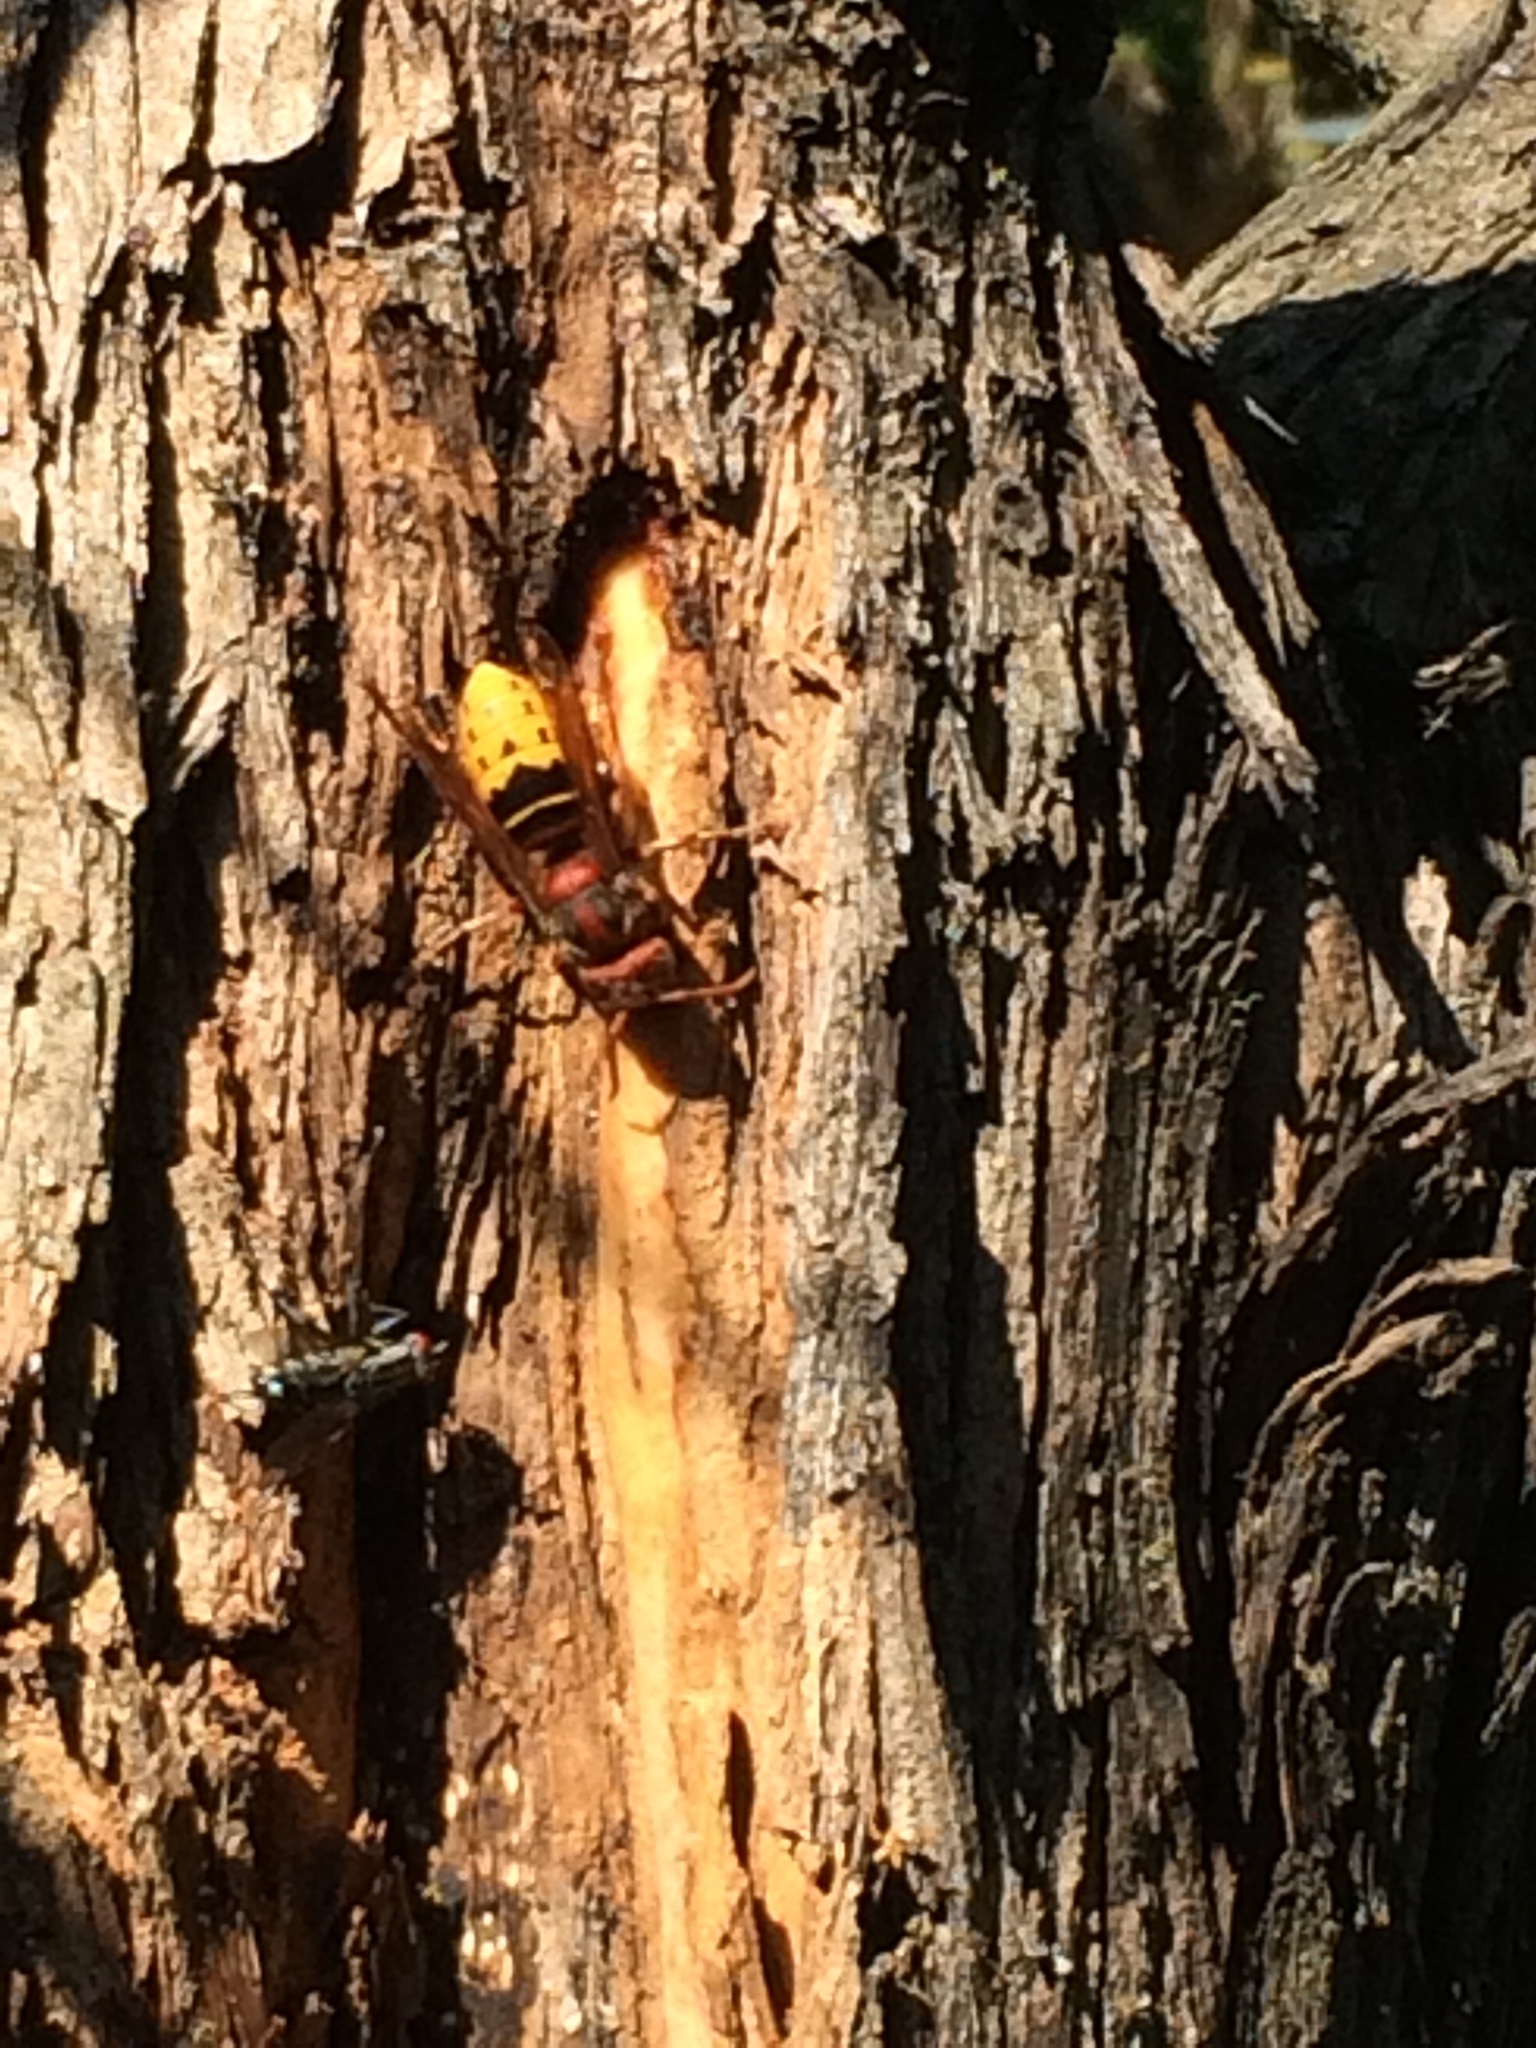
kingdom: Animalia
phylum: Arthropoda
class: Insecta
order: Hymenoptera
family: Vespidae
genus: Vespa
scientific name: Vespa crabro
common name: Hornet
